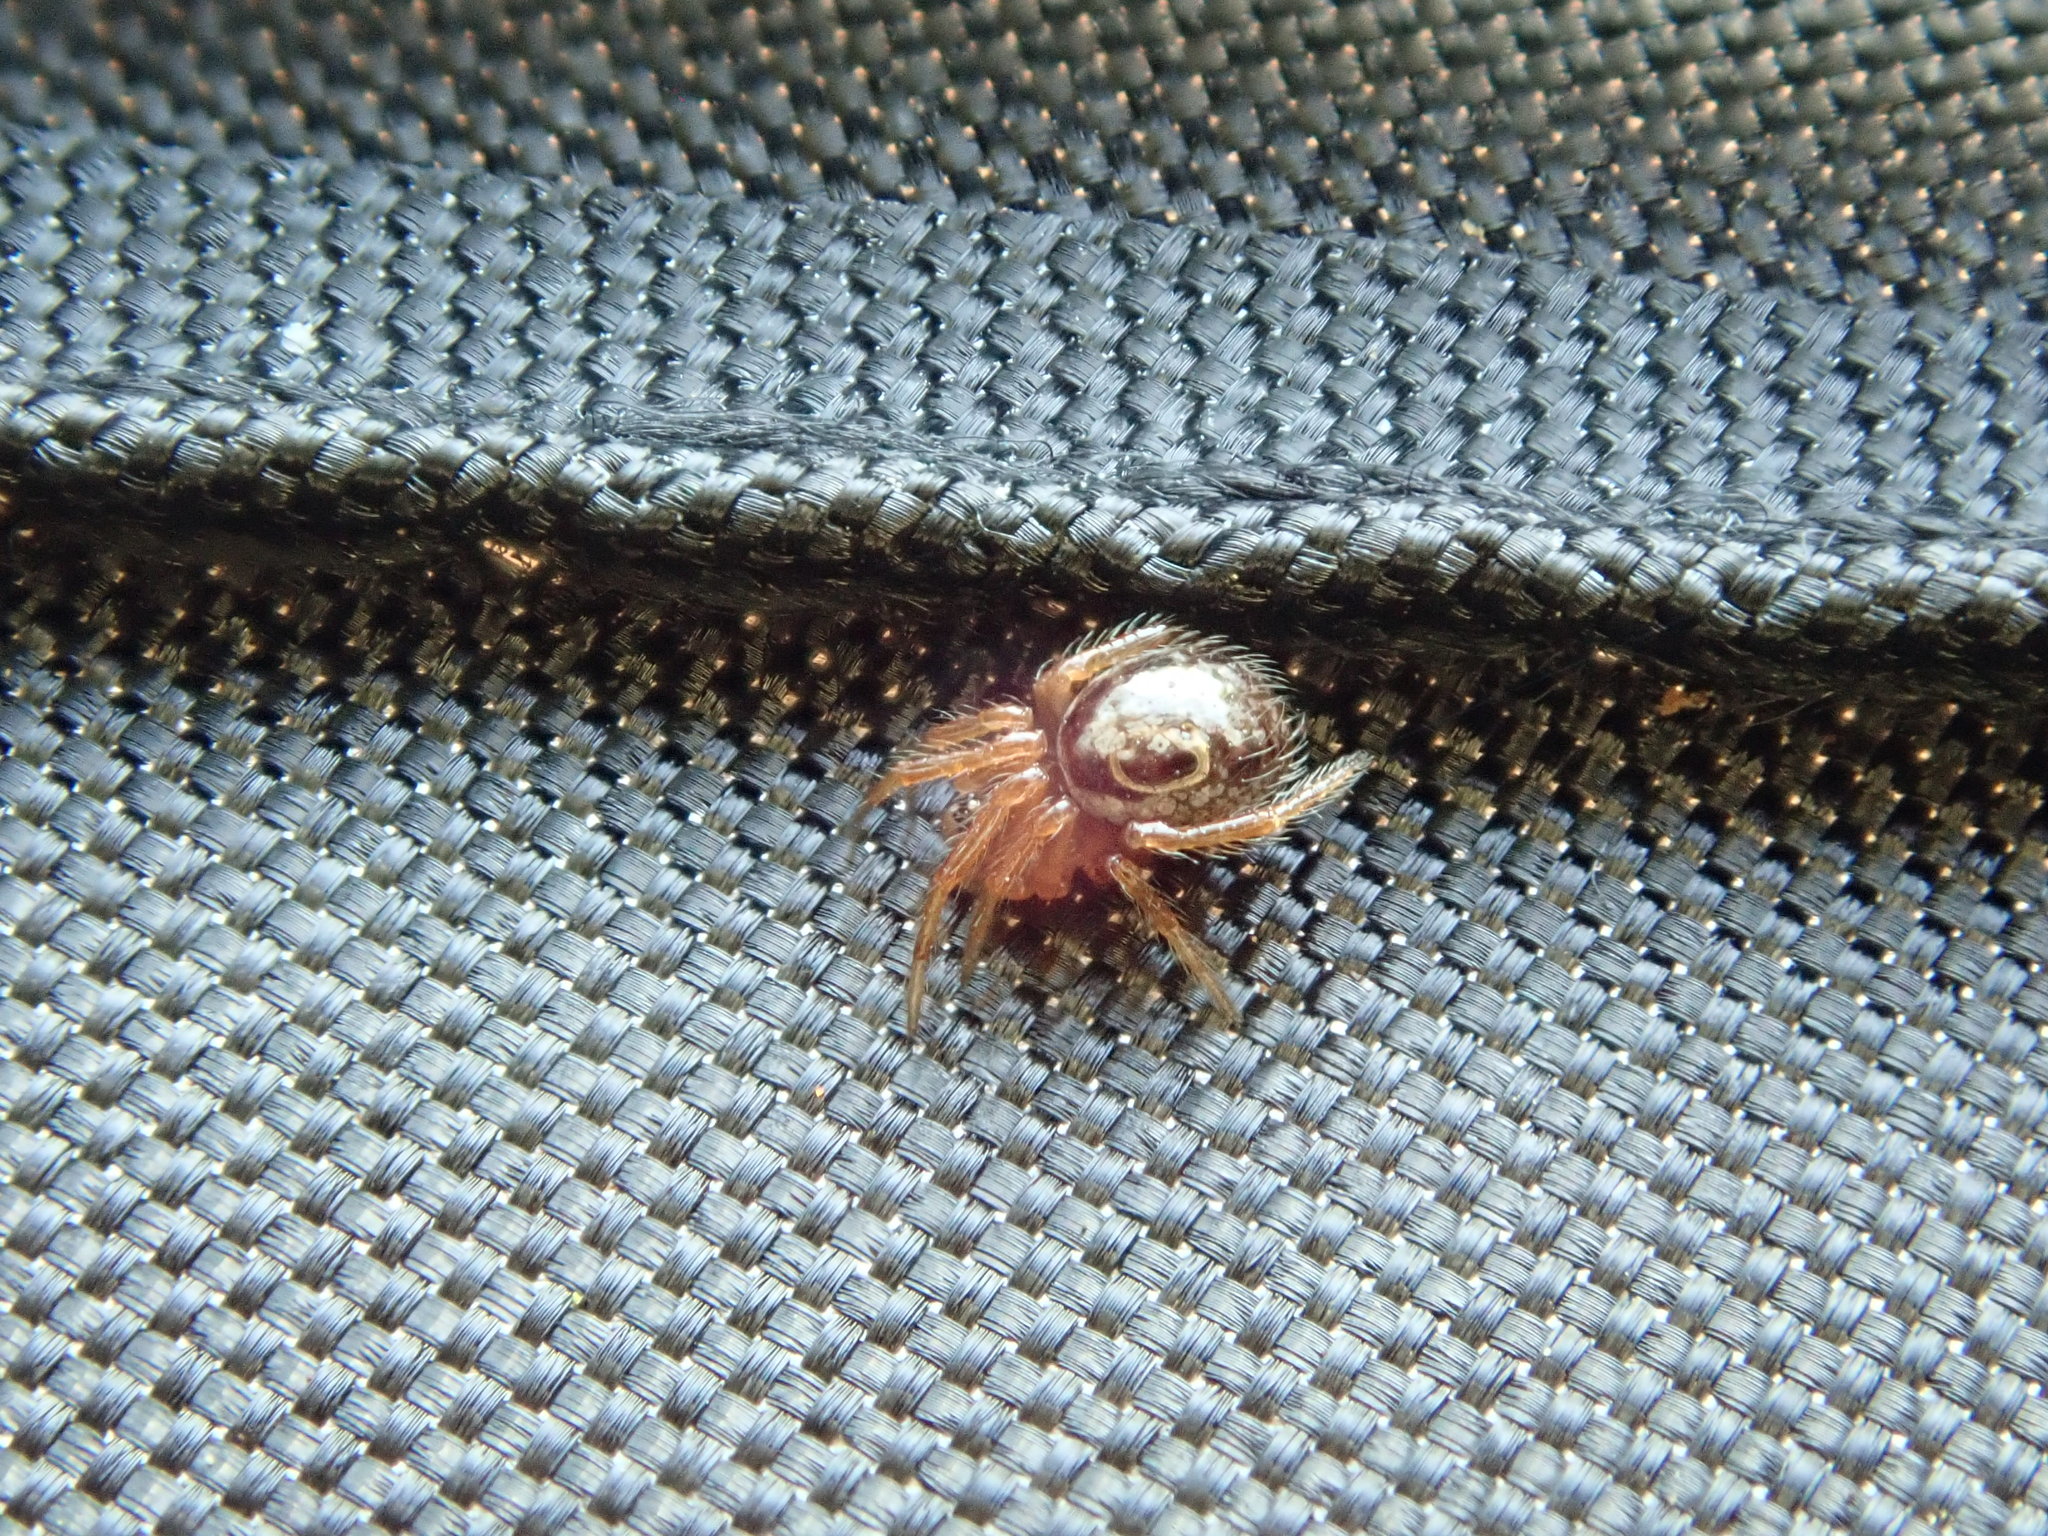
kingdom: Animalia
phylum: Arthropoda
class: Arachnida
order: Araneae
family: Theridiidae
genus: Steatoda
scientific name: Steatoda nobilis
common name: Cobweb weaver
